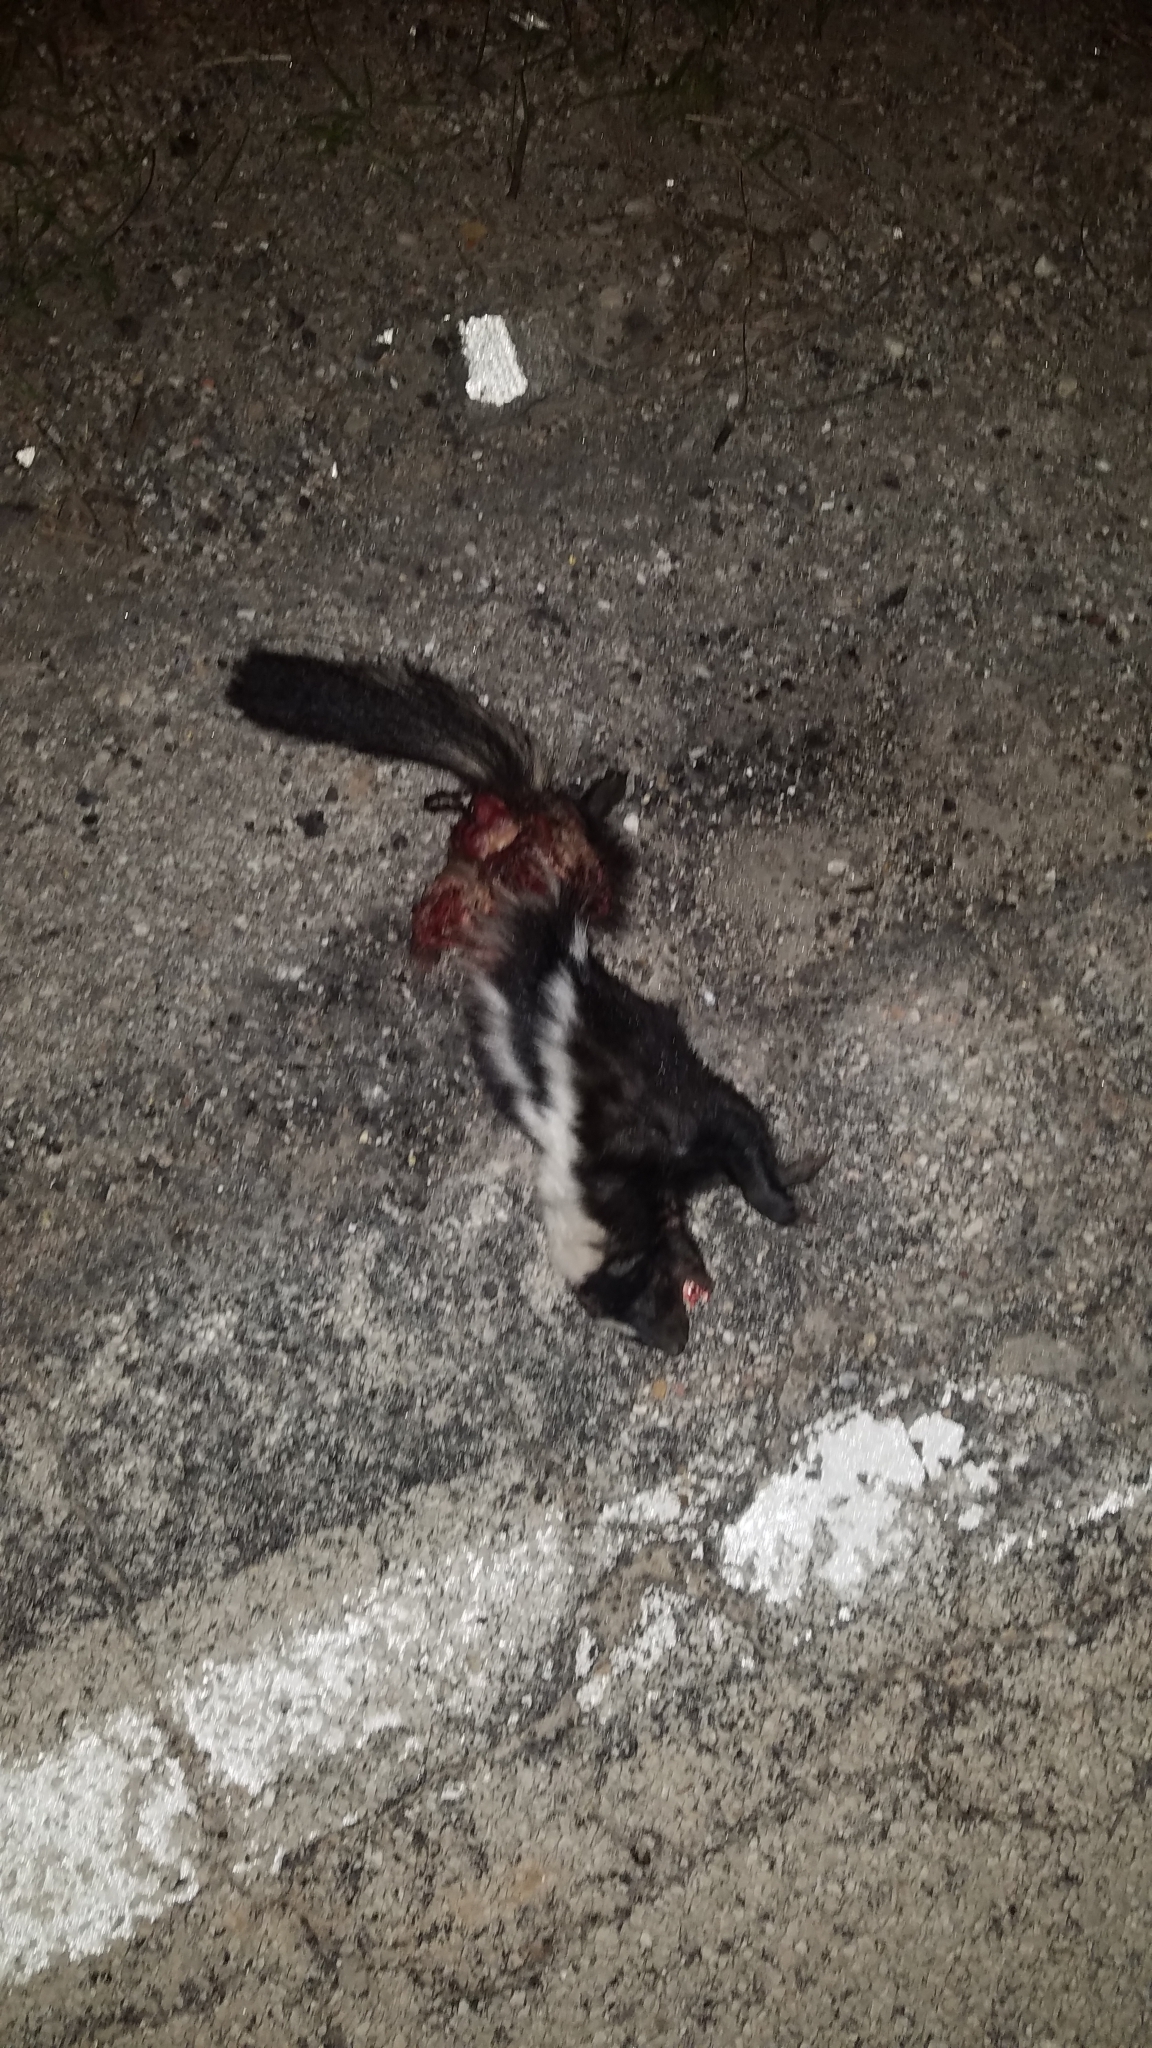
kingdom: Animalia
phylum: Chordata
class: Mammalia
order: Carnivora
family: Mephitidae
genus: Mephitis
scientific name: Mephitis mephitis
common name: Striped skunk
